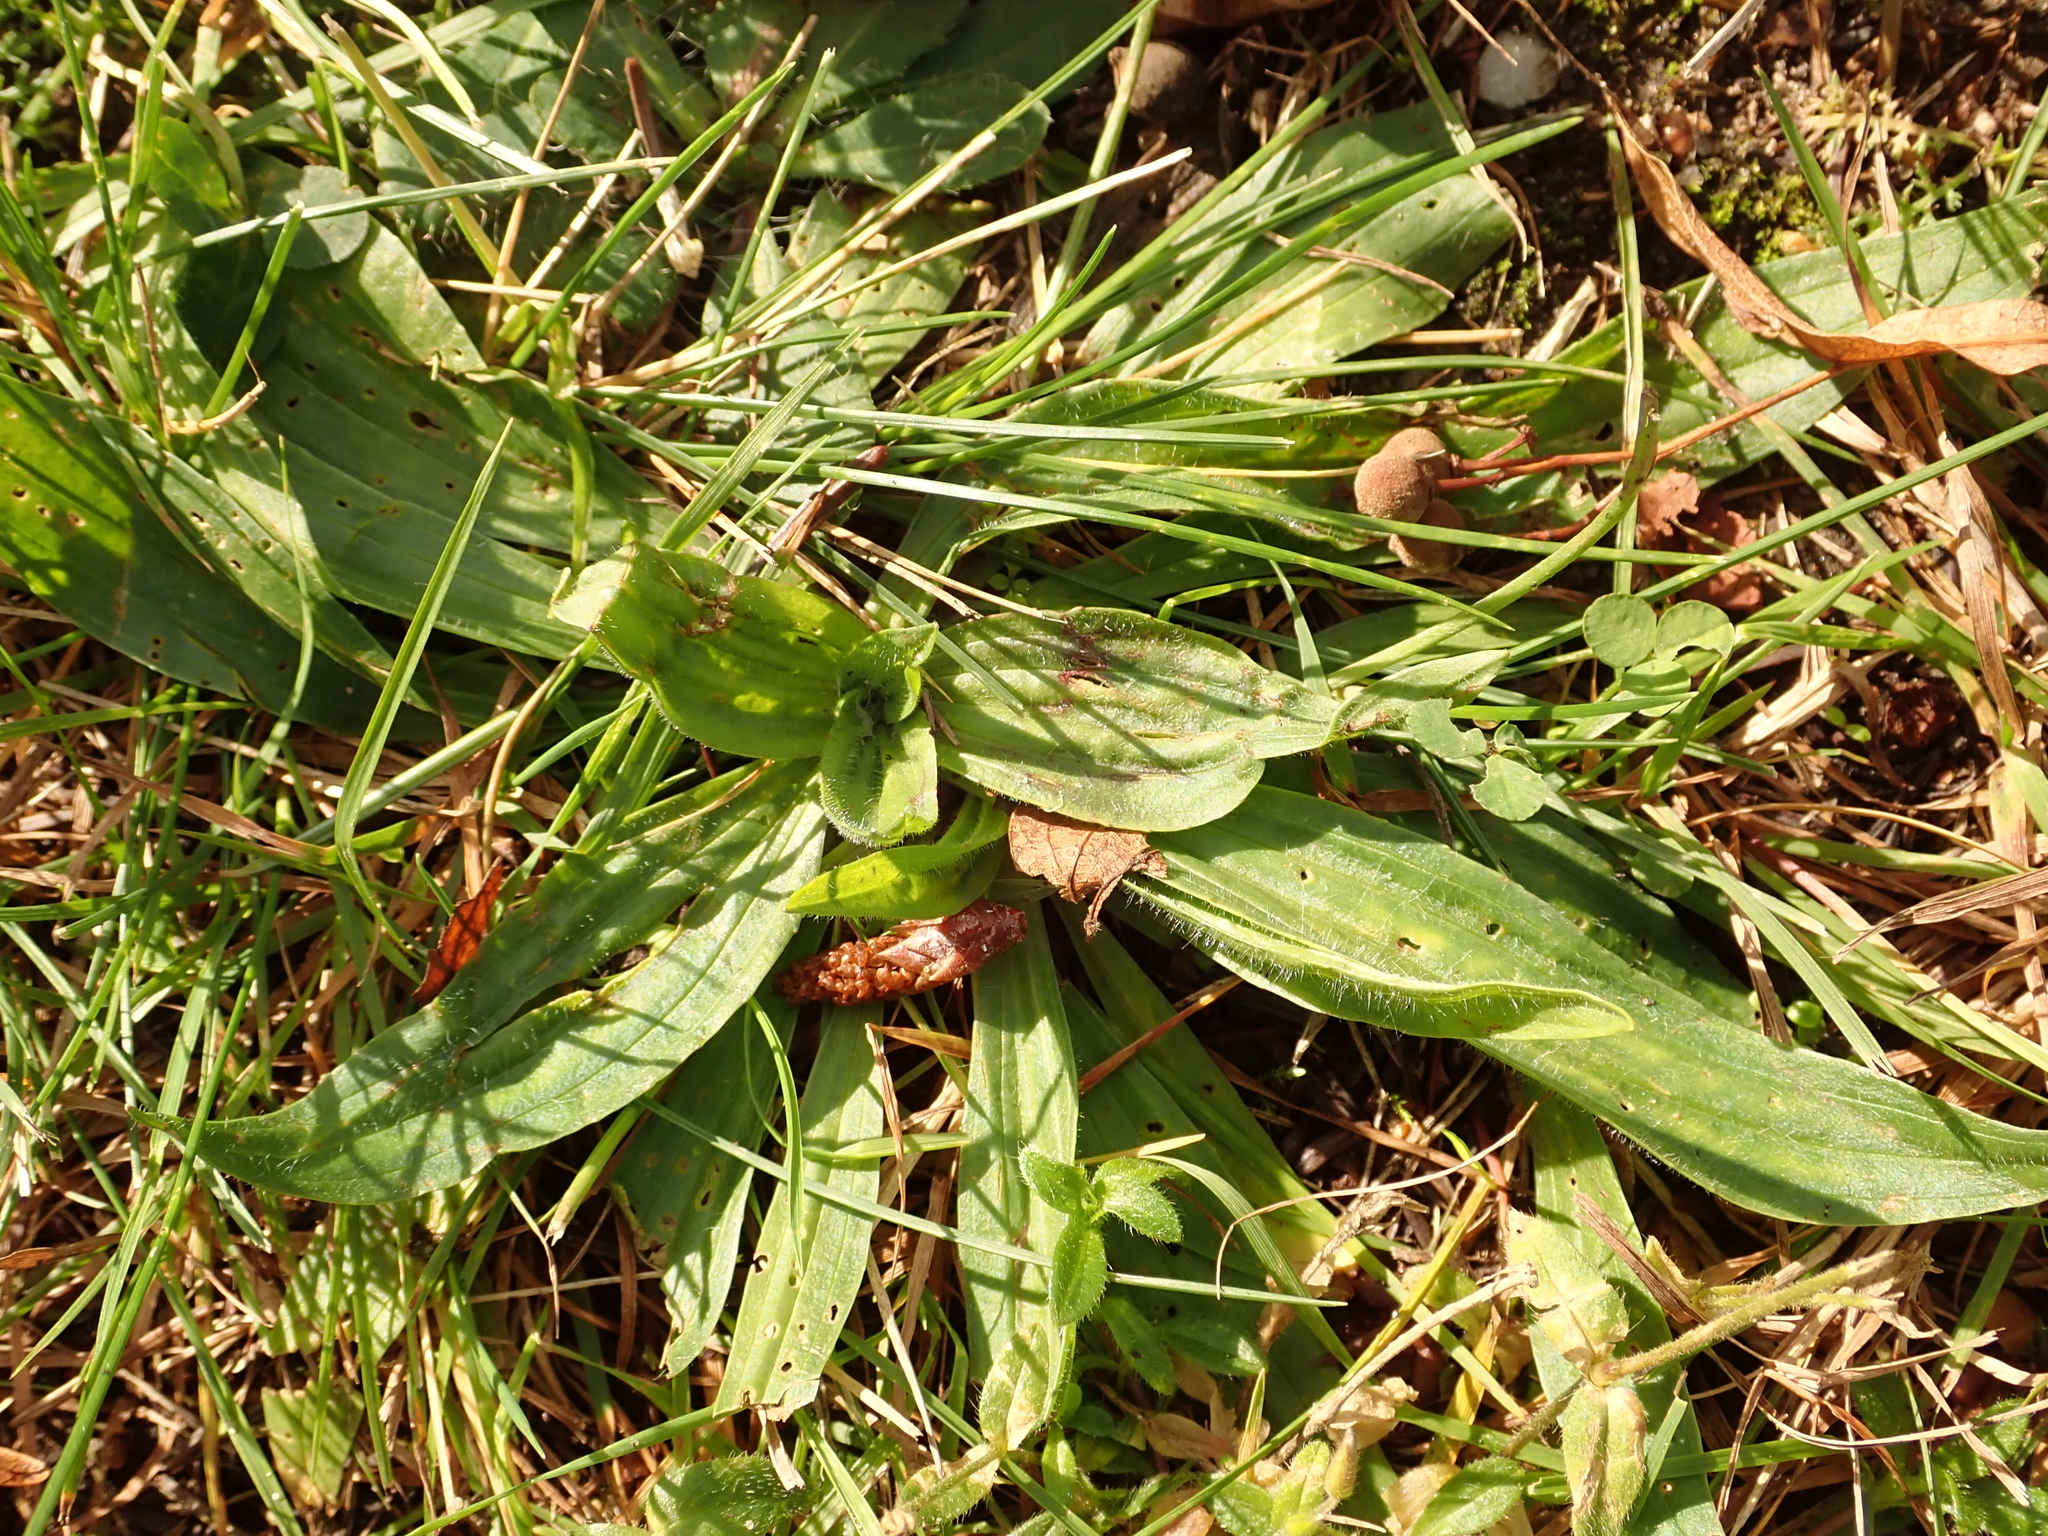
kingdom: Plantae
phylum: Tracheophyta
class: Magnoliopsida
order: Lamiales
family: Plantaginaceae
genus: Plantago
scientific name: Plantago lanceolata
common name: Ribwort plantain
